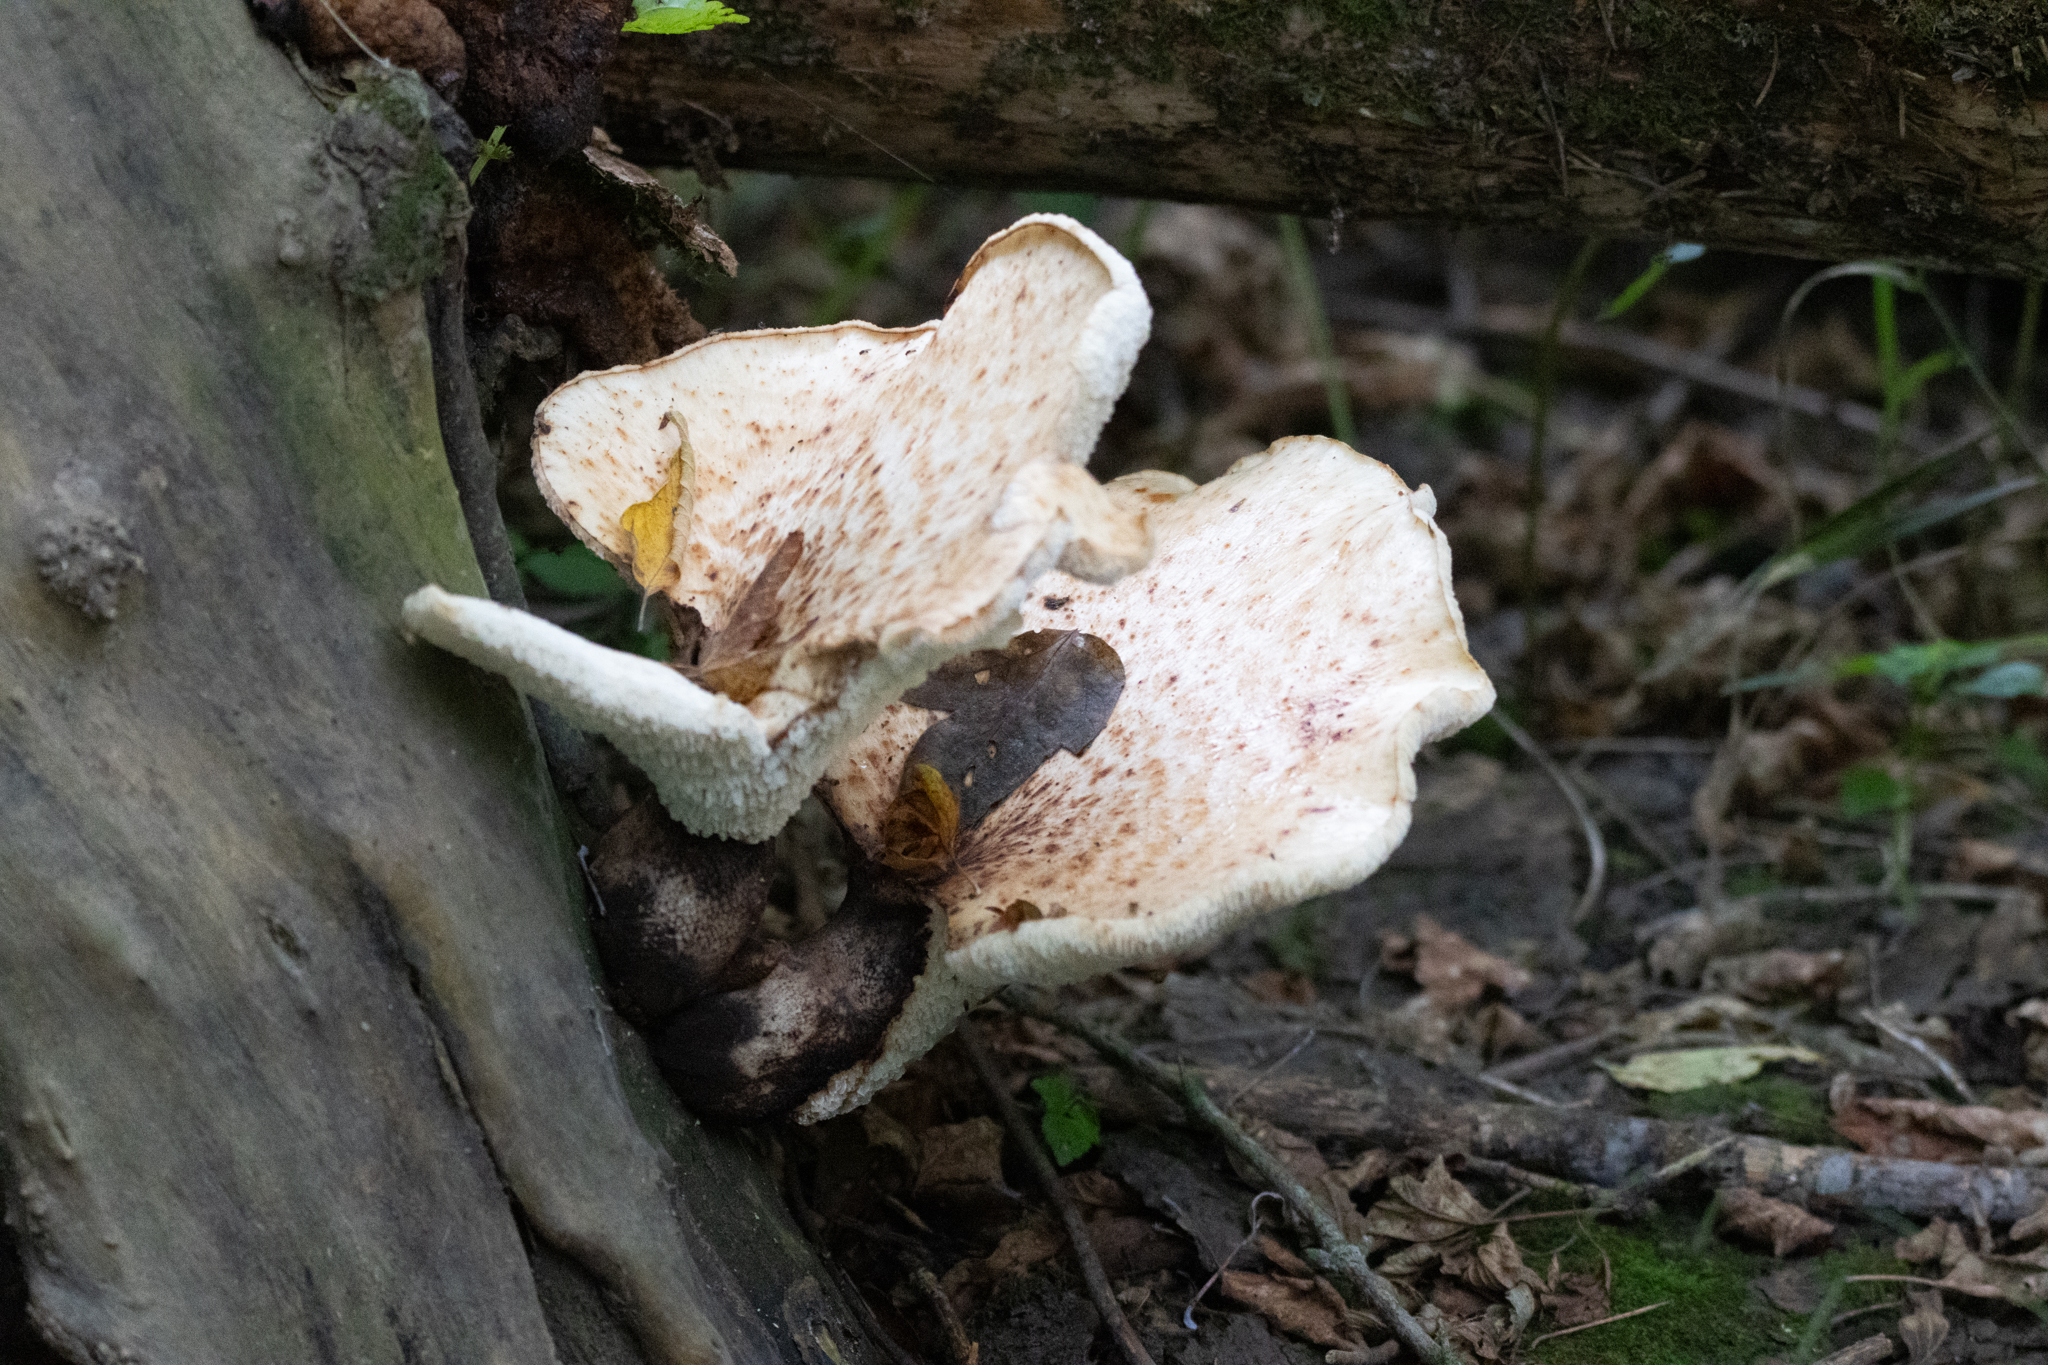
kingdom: Fungi
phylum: Basidiomycota
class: Agaricomycetes
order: Polyporales
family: Polyporaceae
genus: Cerioporus
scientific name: Cerioporus squamosus
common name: Dryad's saddle
